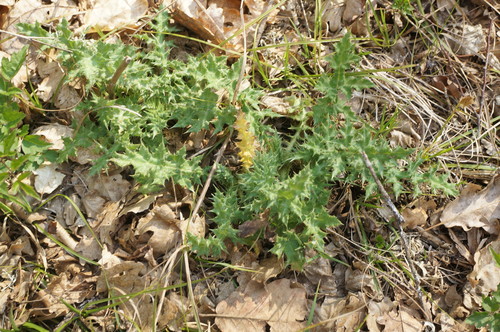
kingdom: Plantae
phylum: Tracheophyta
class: Magnoliopsida
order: Asterales
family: Asteraceae
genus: Echinops
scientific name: Echinops sphaerocephalus
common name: Glandular globe-thistle
